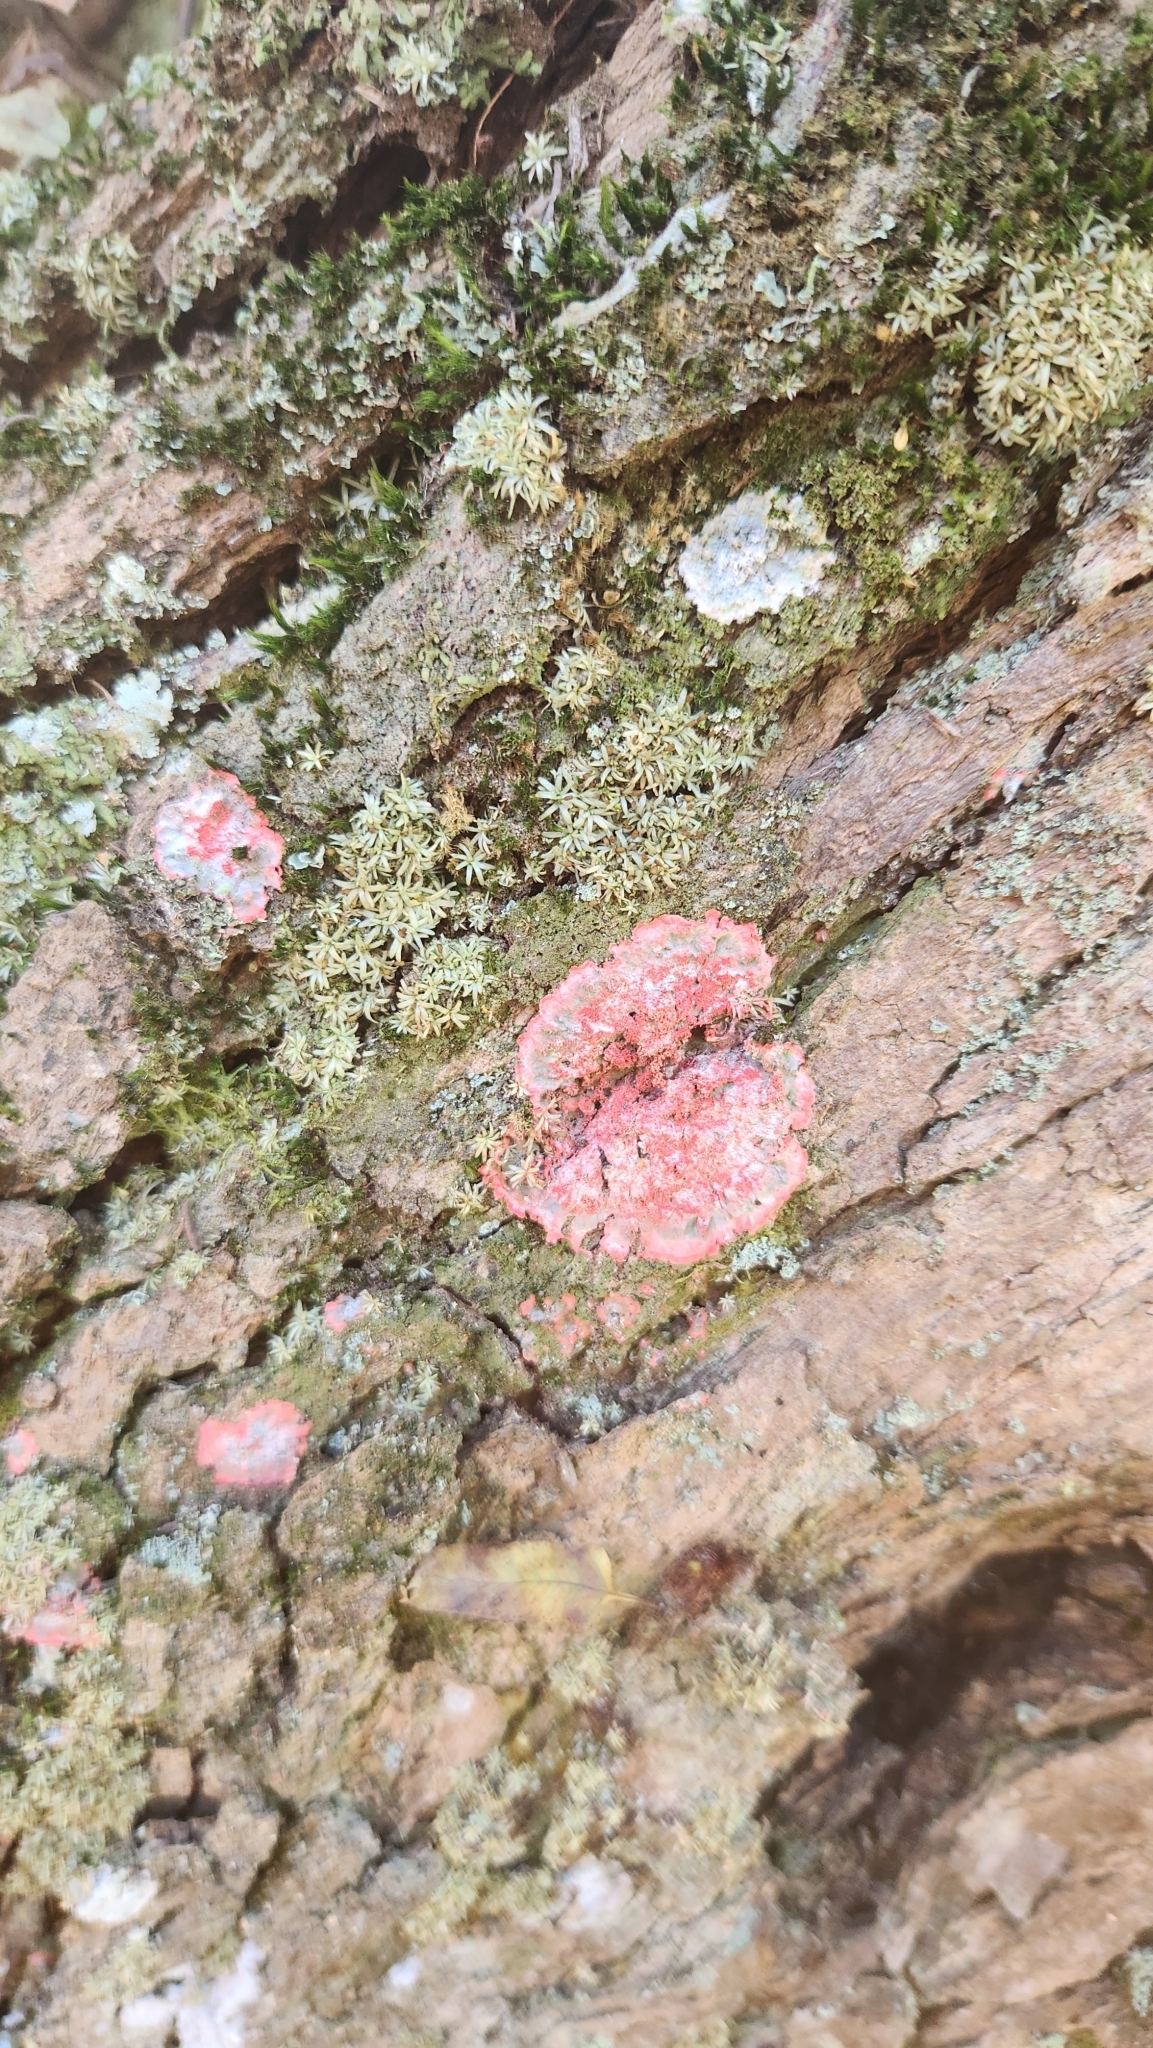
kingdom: Fungi
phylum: Ascomycota
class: Arthoniomycetes
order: Arthoniales
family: Arthoniaceae
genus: Herpothallon
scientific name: Herpothallon rubrocinctum
